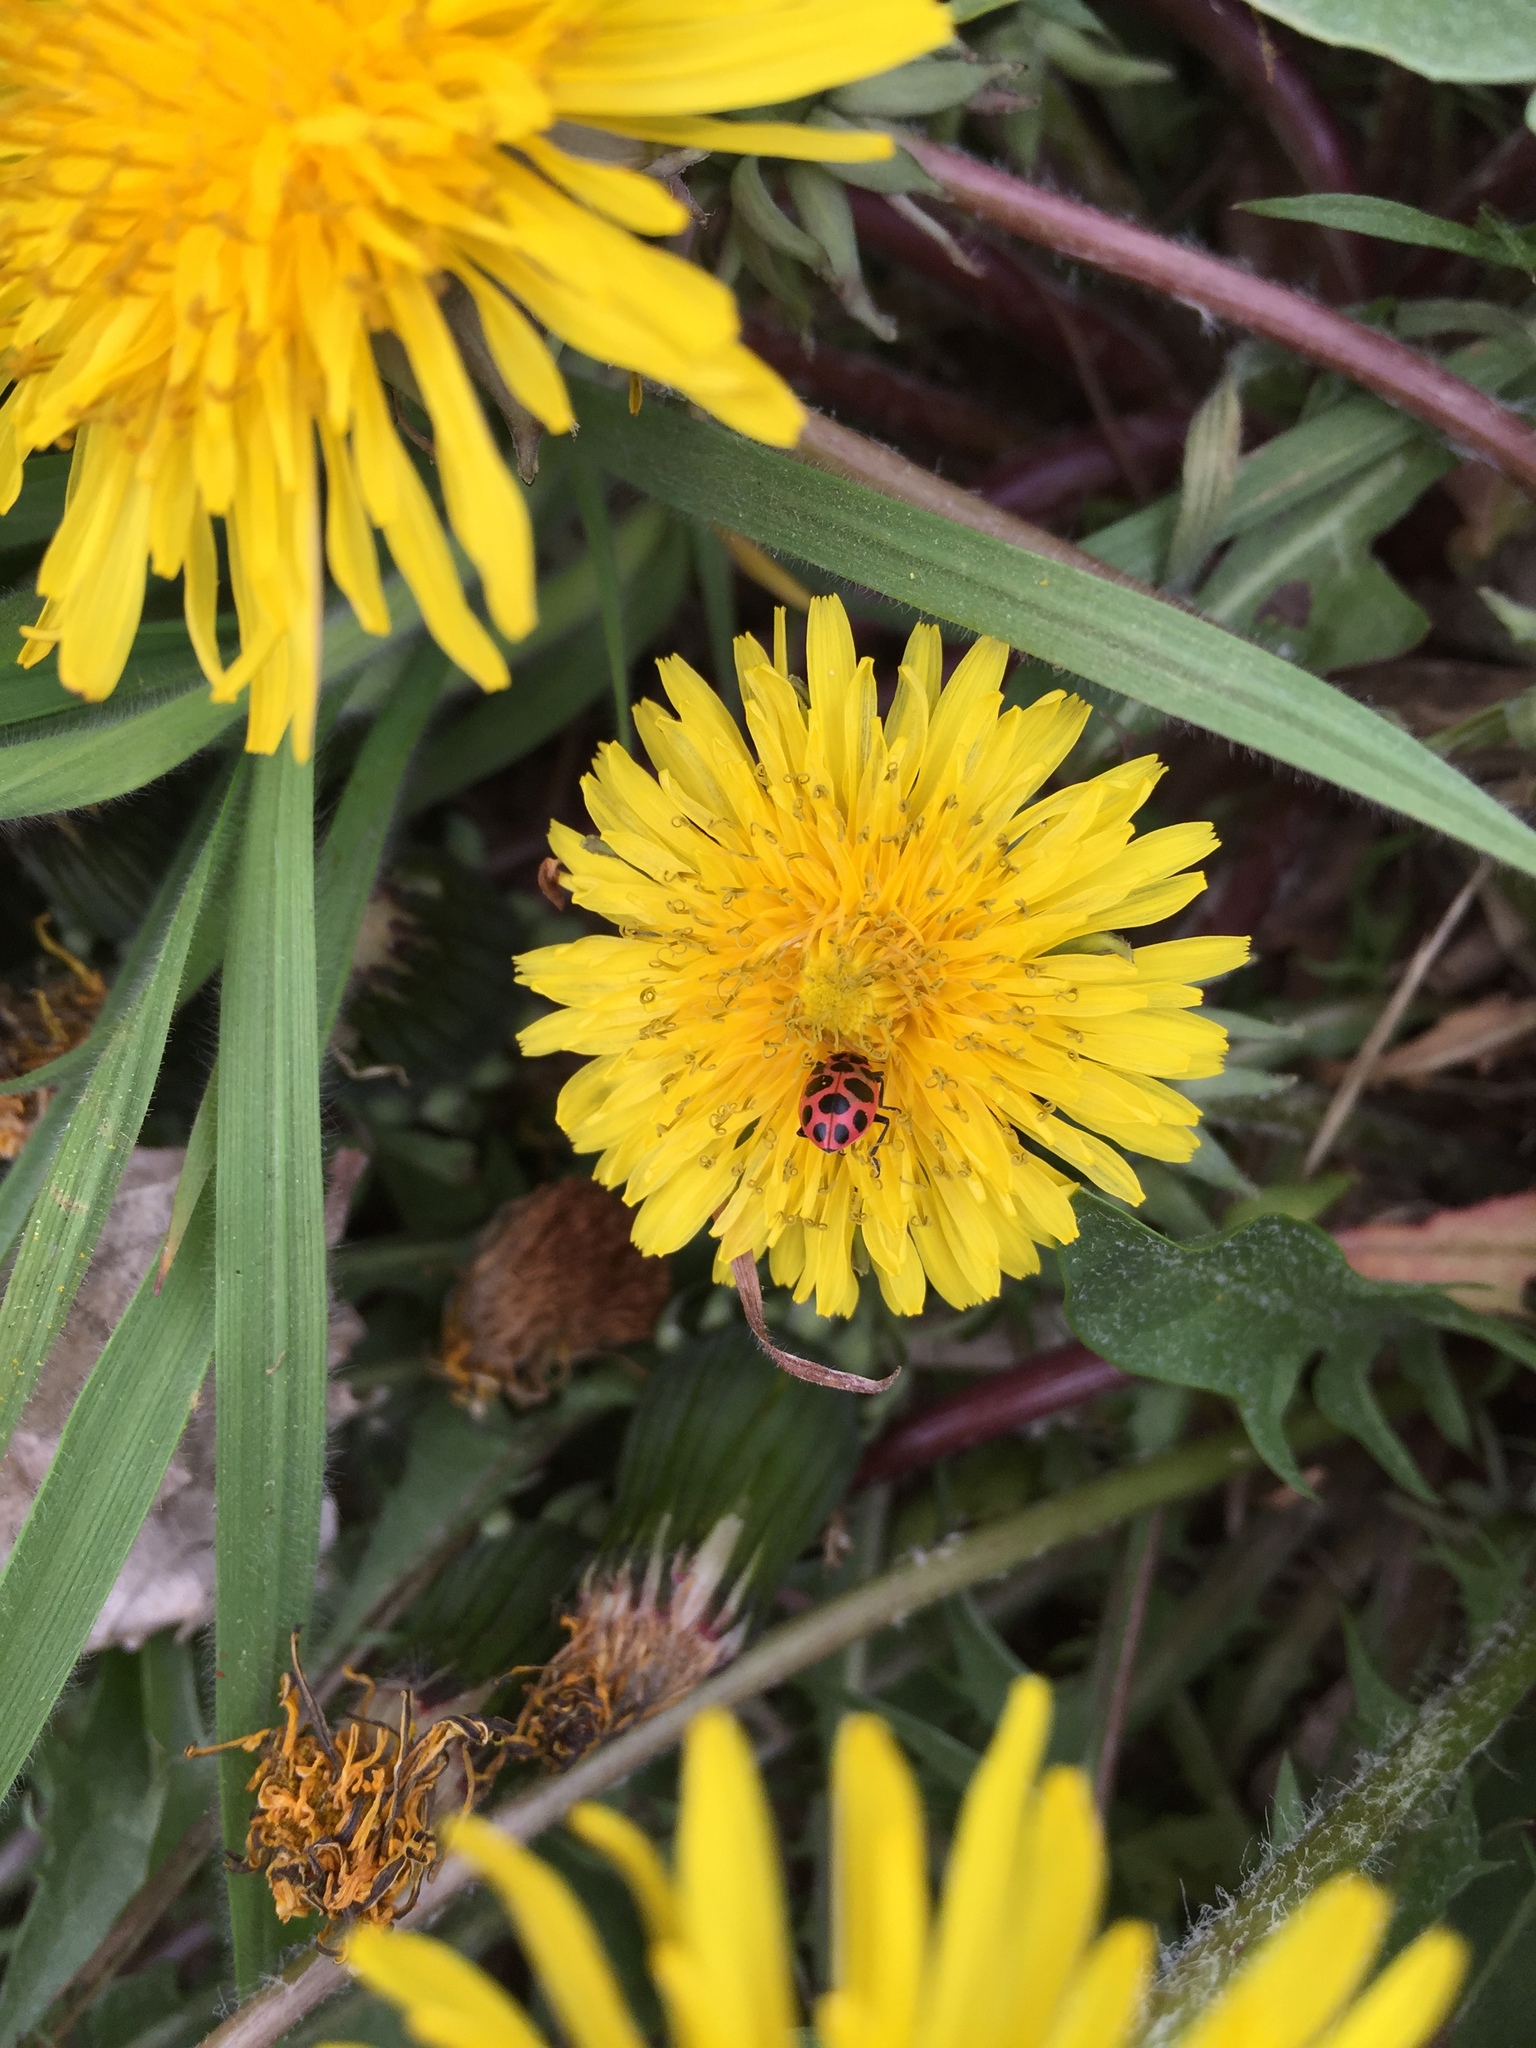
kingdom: Animalia
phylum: Arthropoda
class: Insecta
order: Coleoptera
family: Coccinellidae
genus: Coleomegilla
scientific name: Coleomegilla maculata
